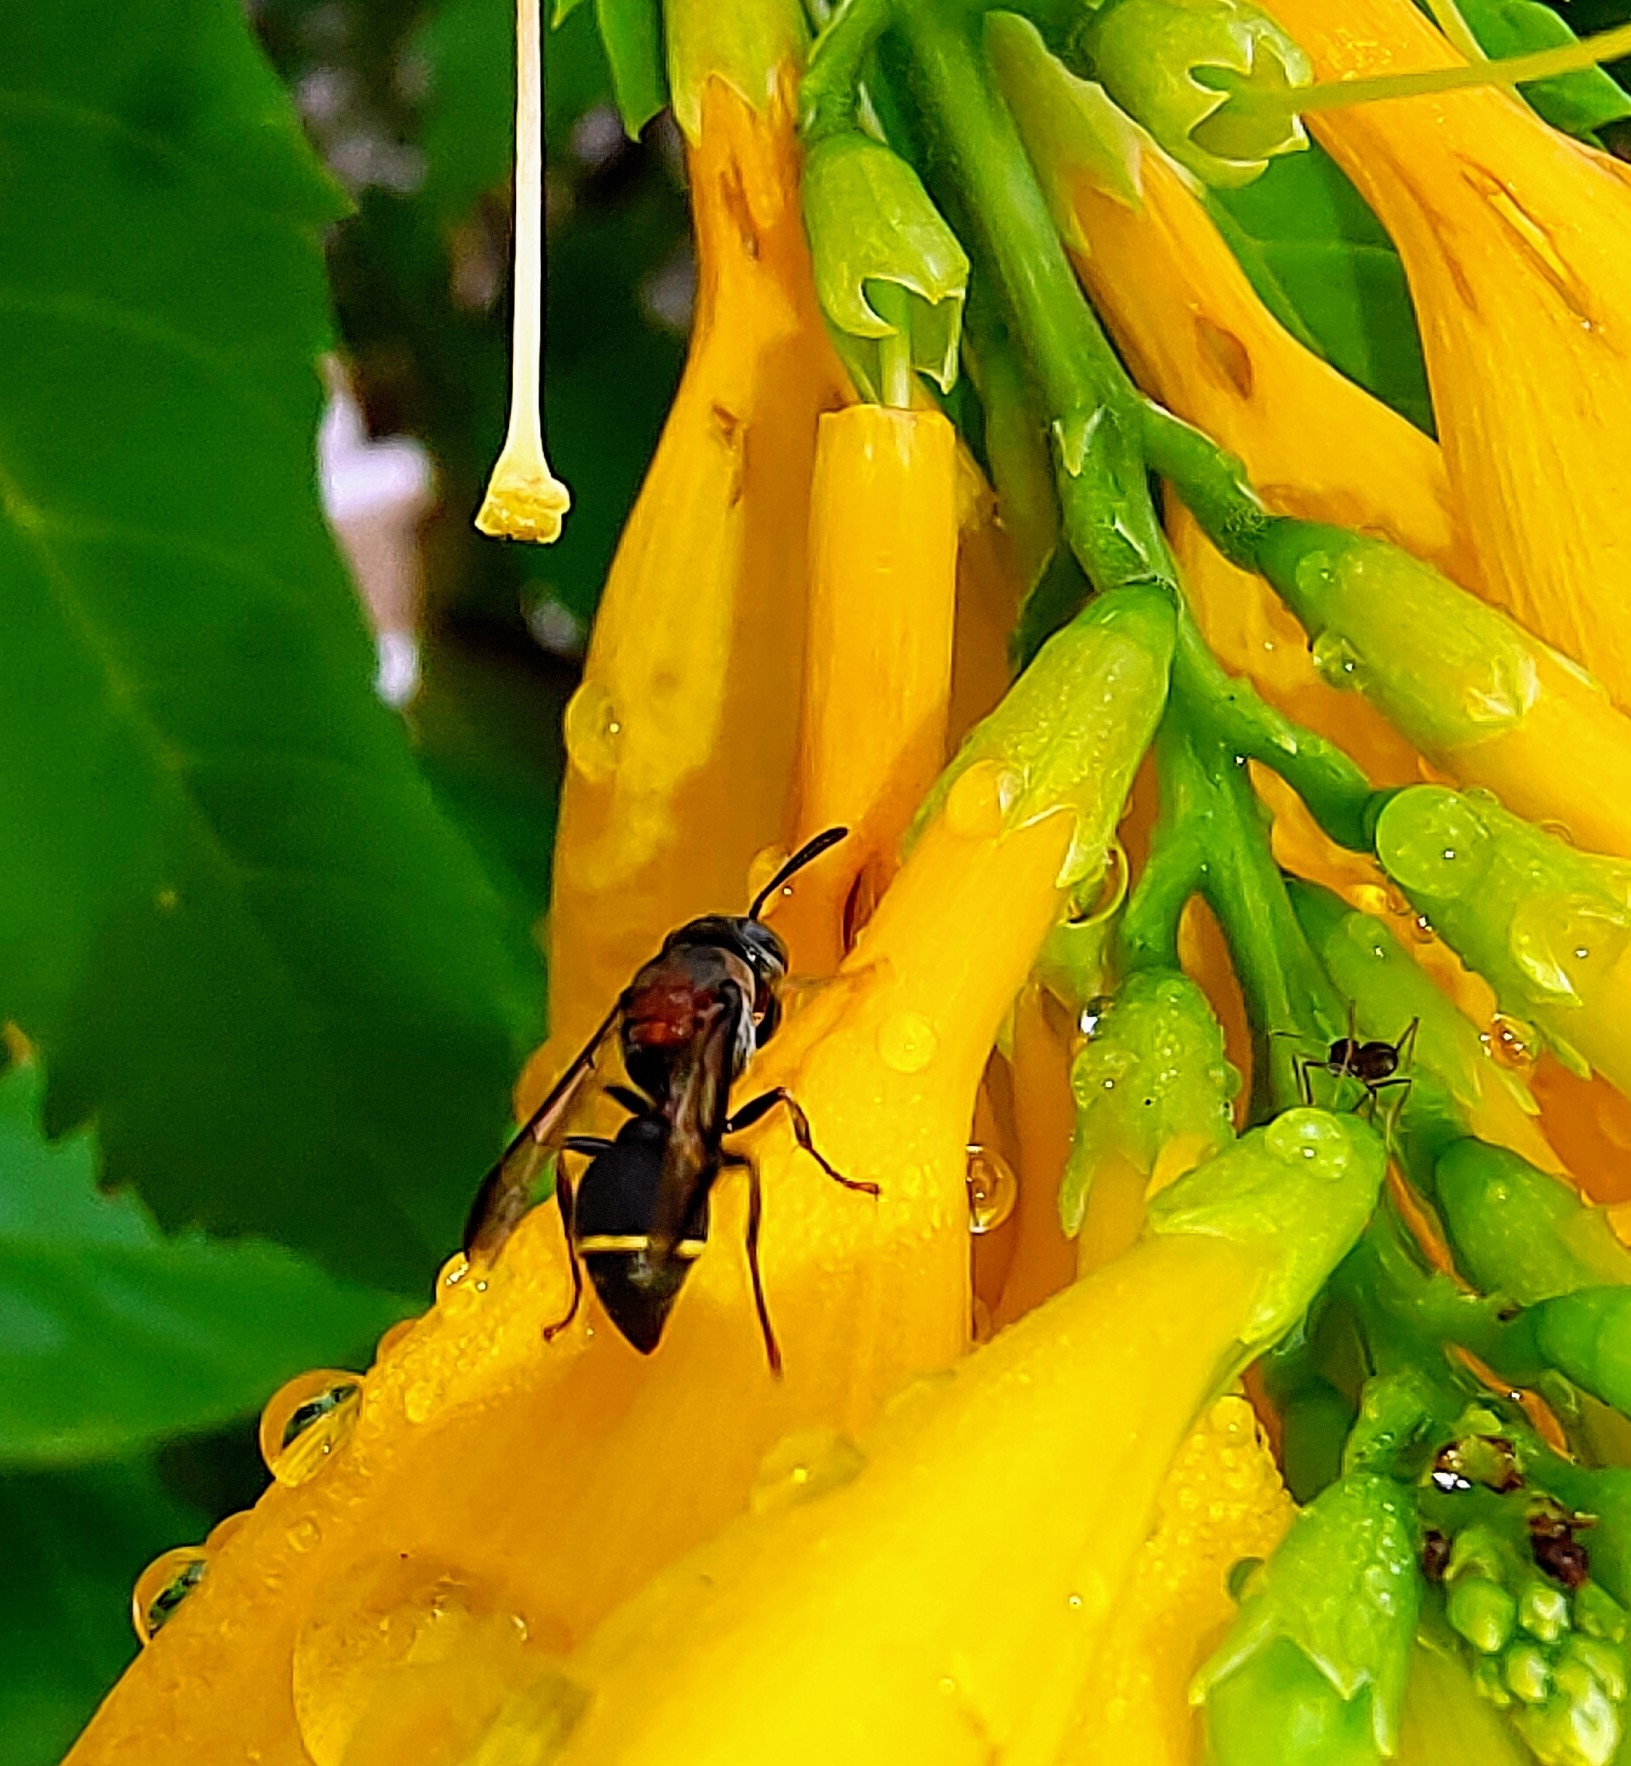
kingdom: Animalia
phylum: Arthropoda
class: Insecta
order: Hymenoptera
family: Vespidae
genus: Ropalidia
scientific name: Ropalidia erythrospila
